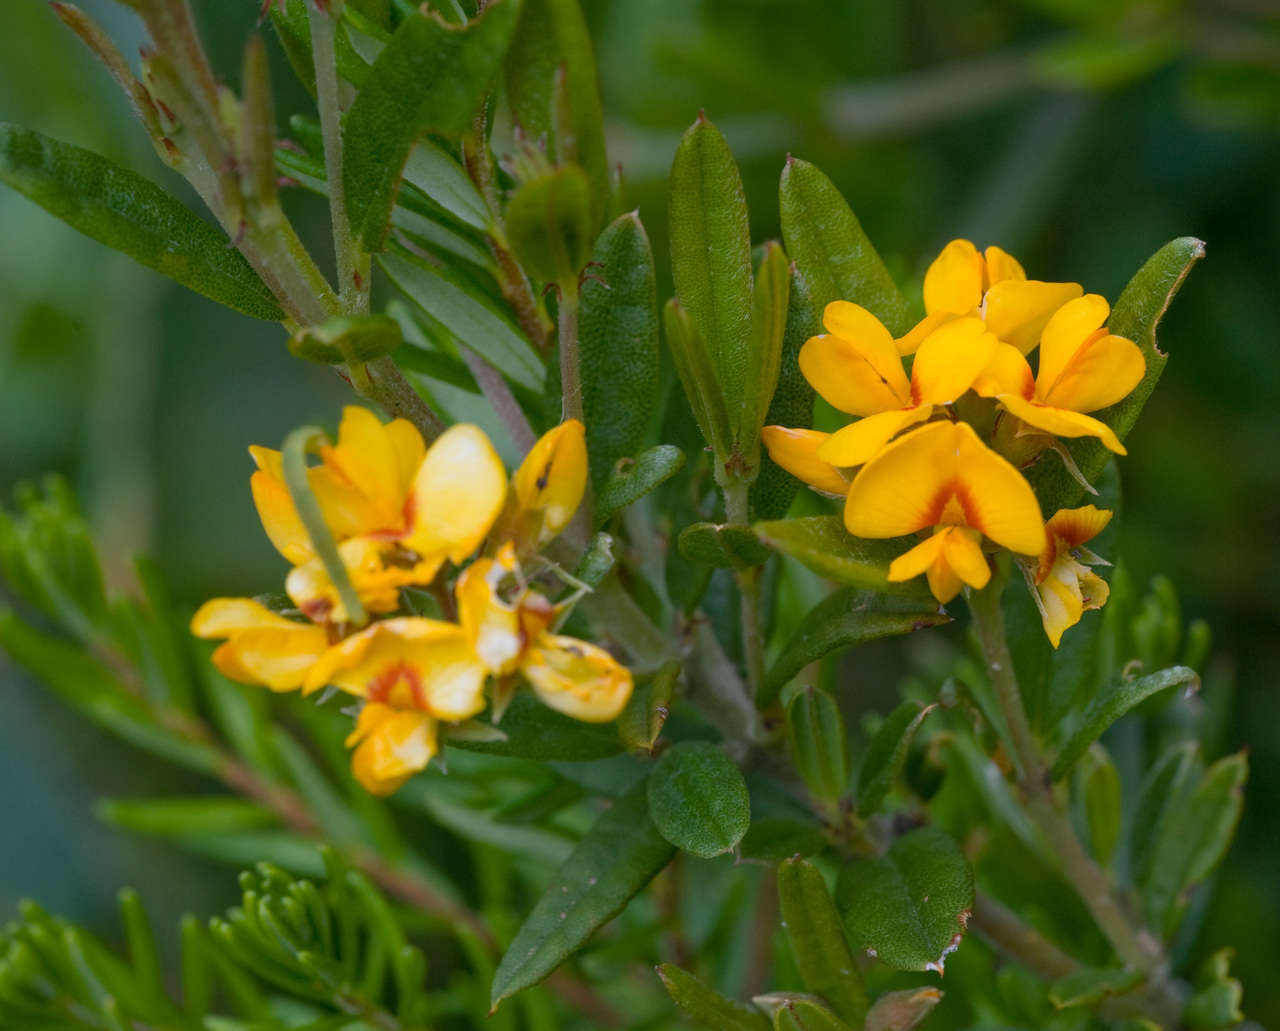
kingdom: Plantae
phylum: Tracheophyta
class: Magnoliopsida
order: Fabales
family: Fabaceae
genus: Podolobium
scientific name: Podolobium alpestre
